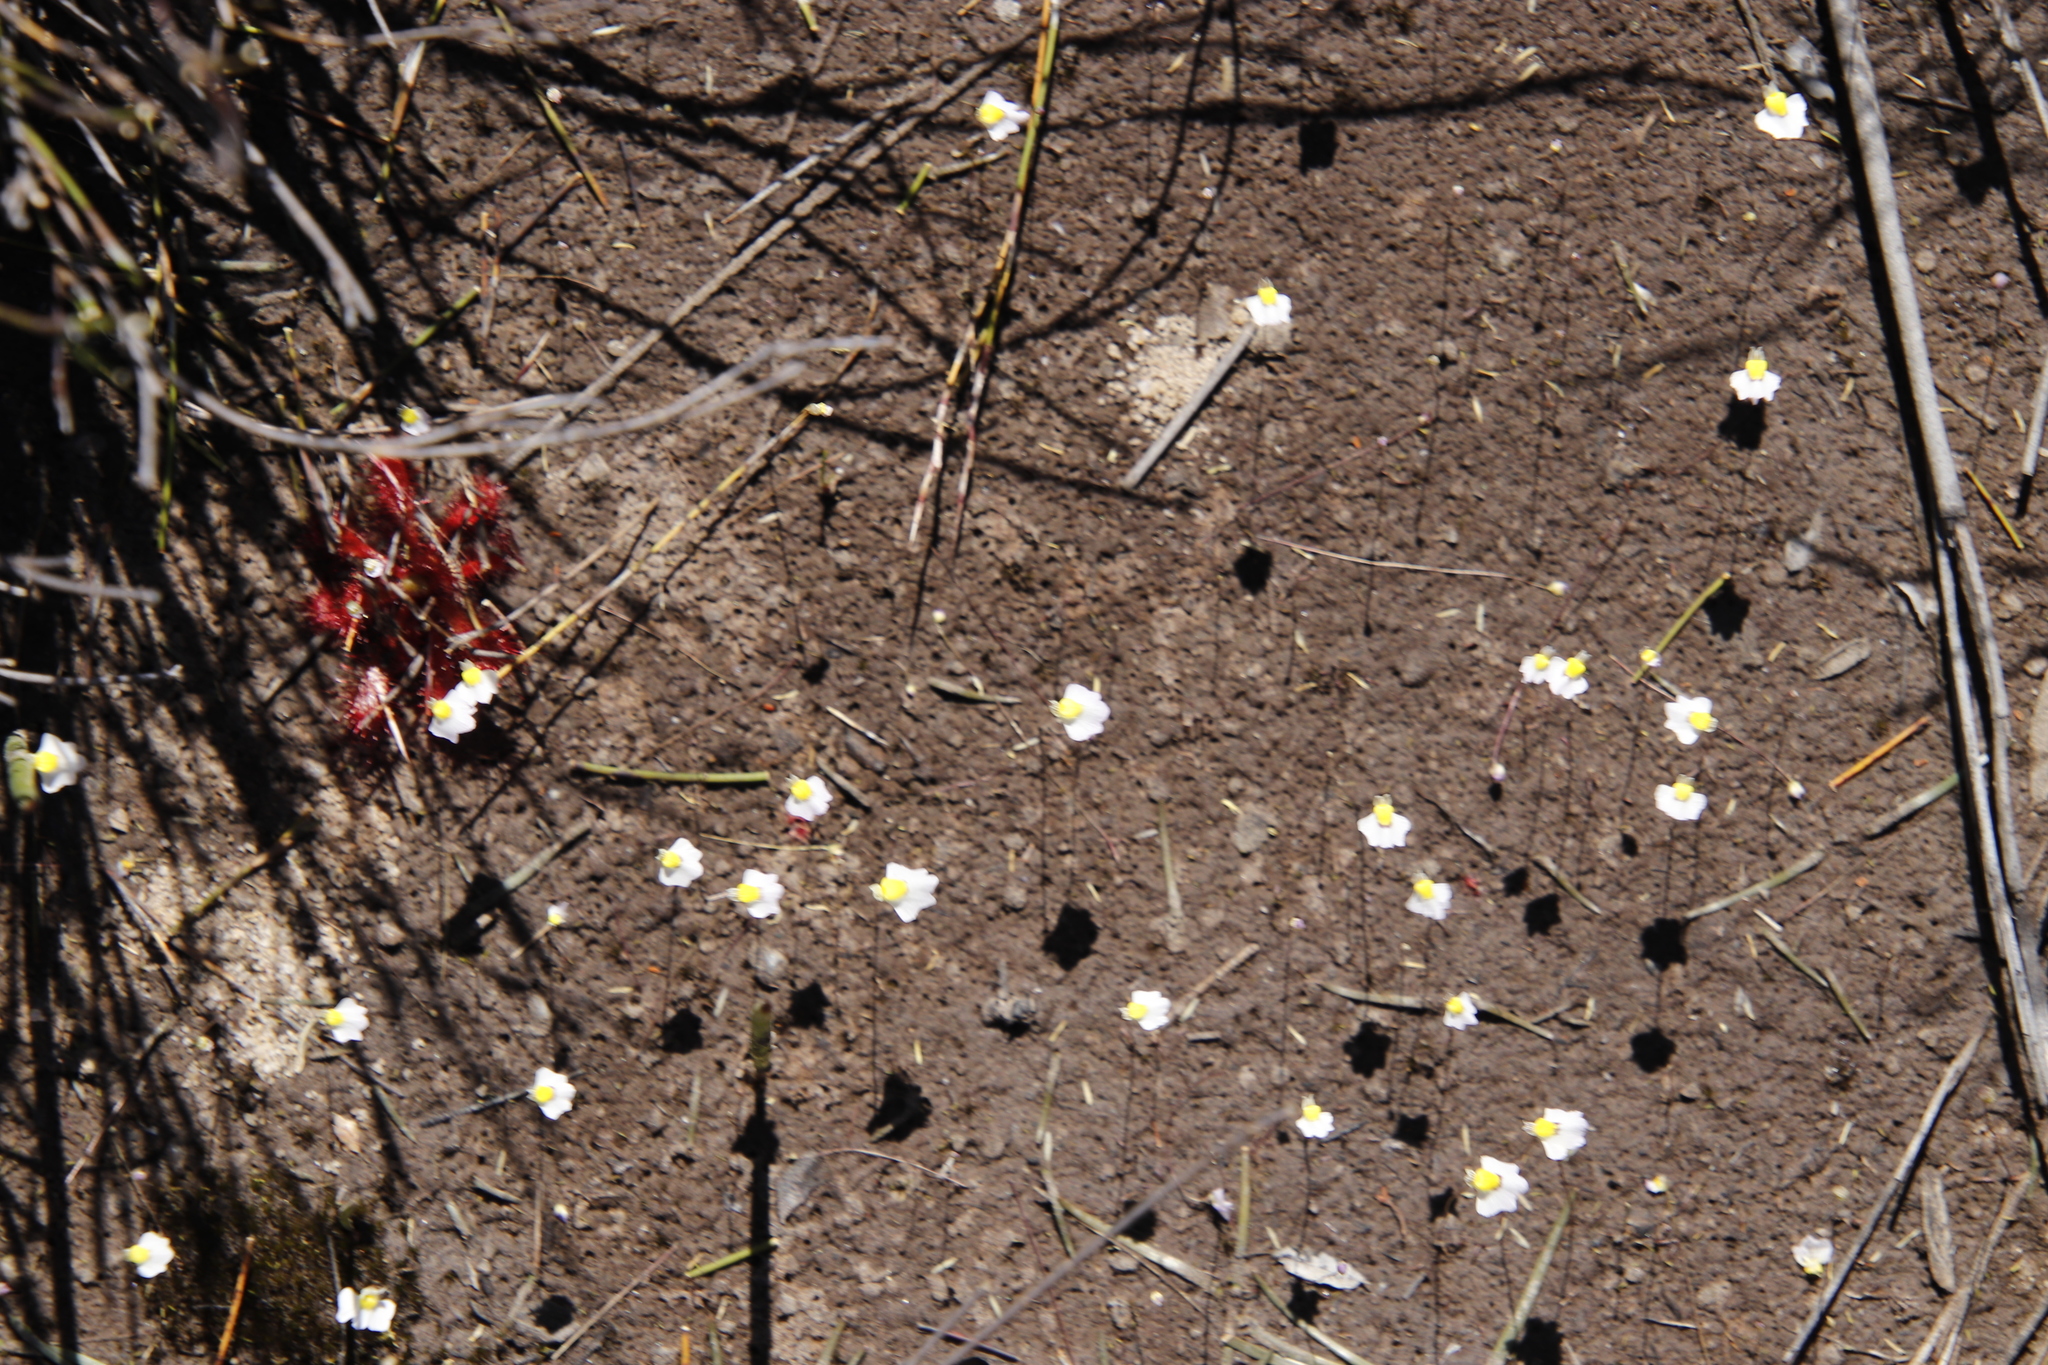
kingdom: Plantae
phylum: Tracheophyta
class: Magnoliopsida
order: Lamiales
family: Lentibulariaceae
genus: Utricularia
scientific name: Utricularia bisquamata
